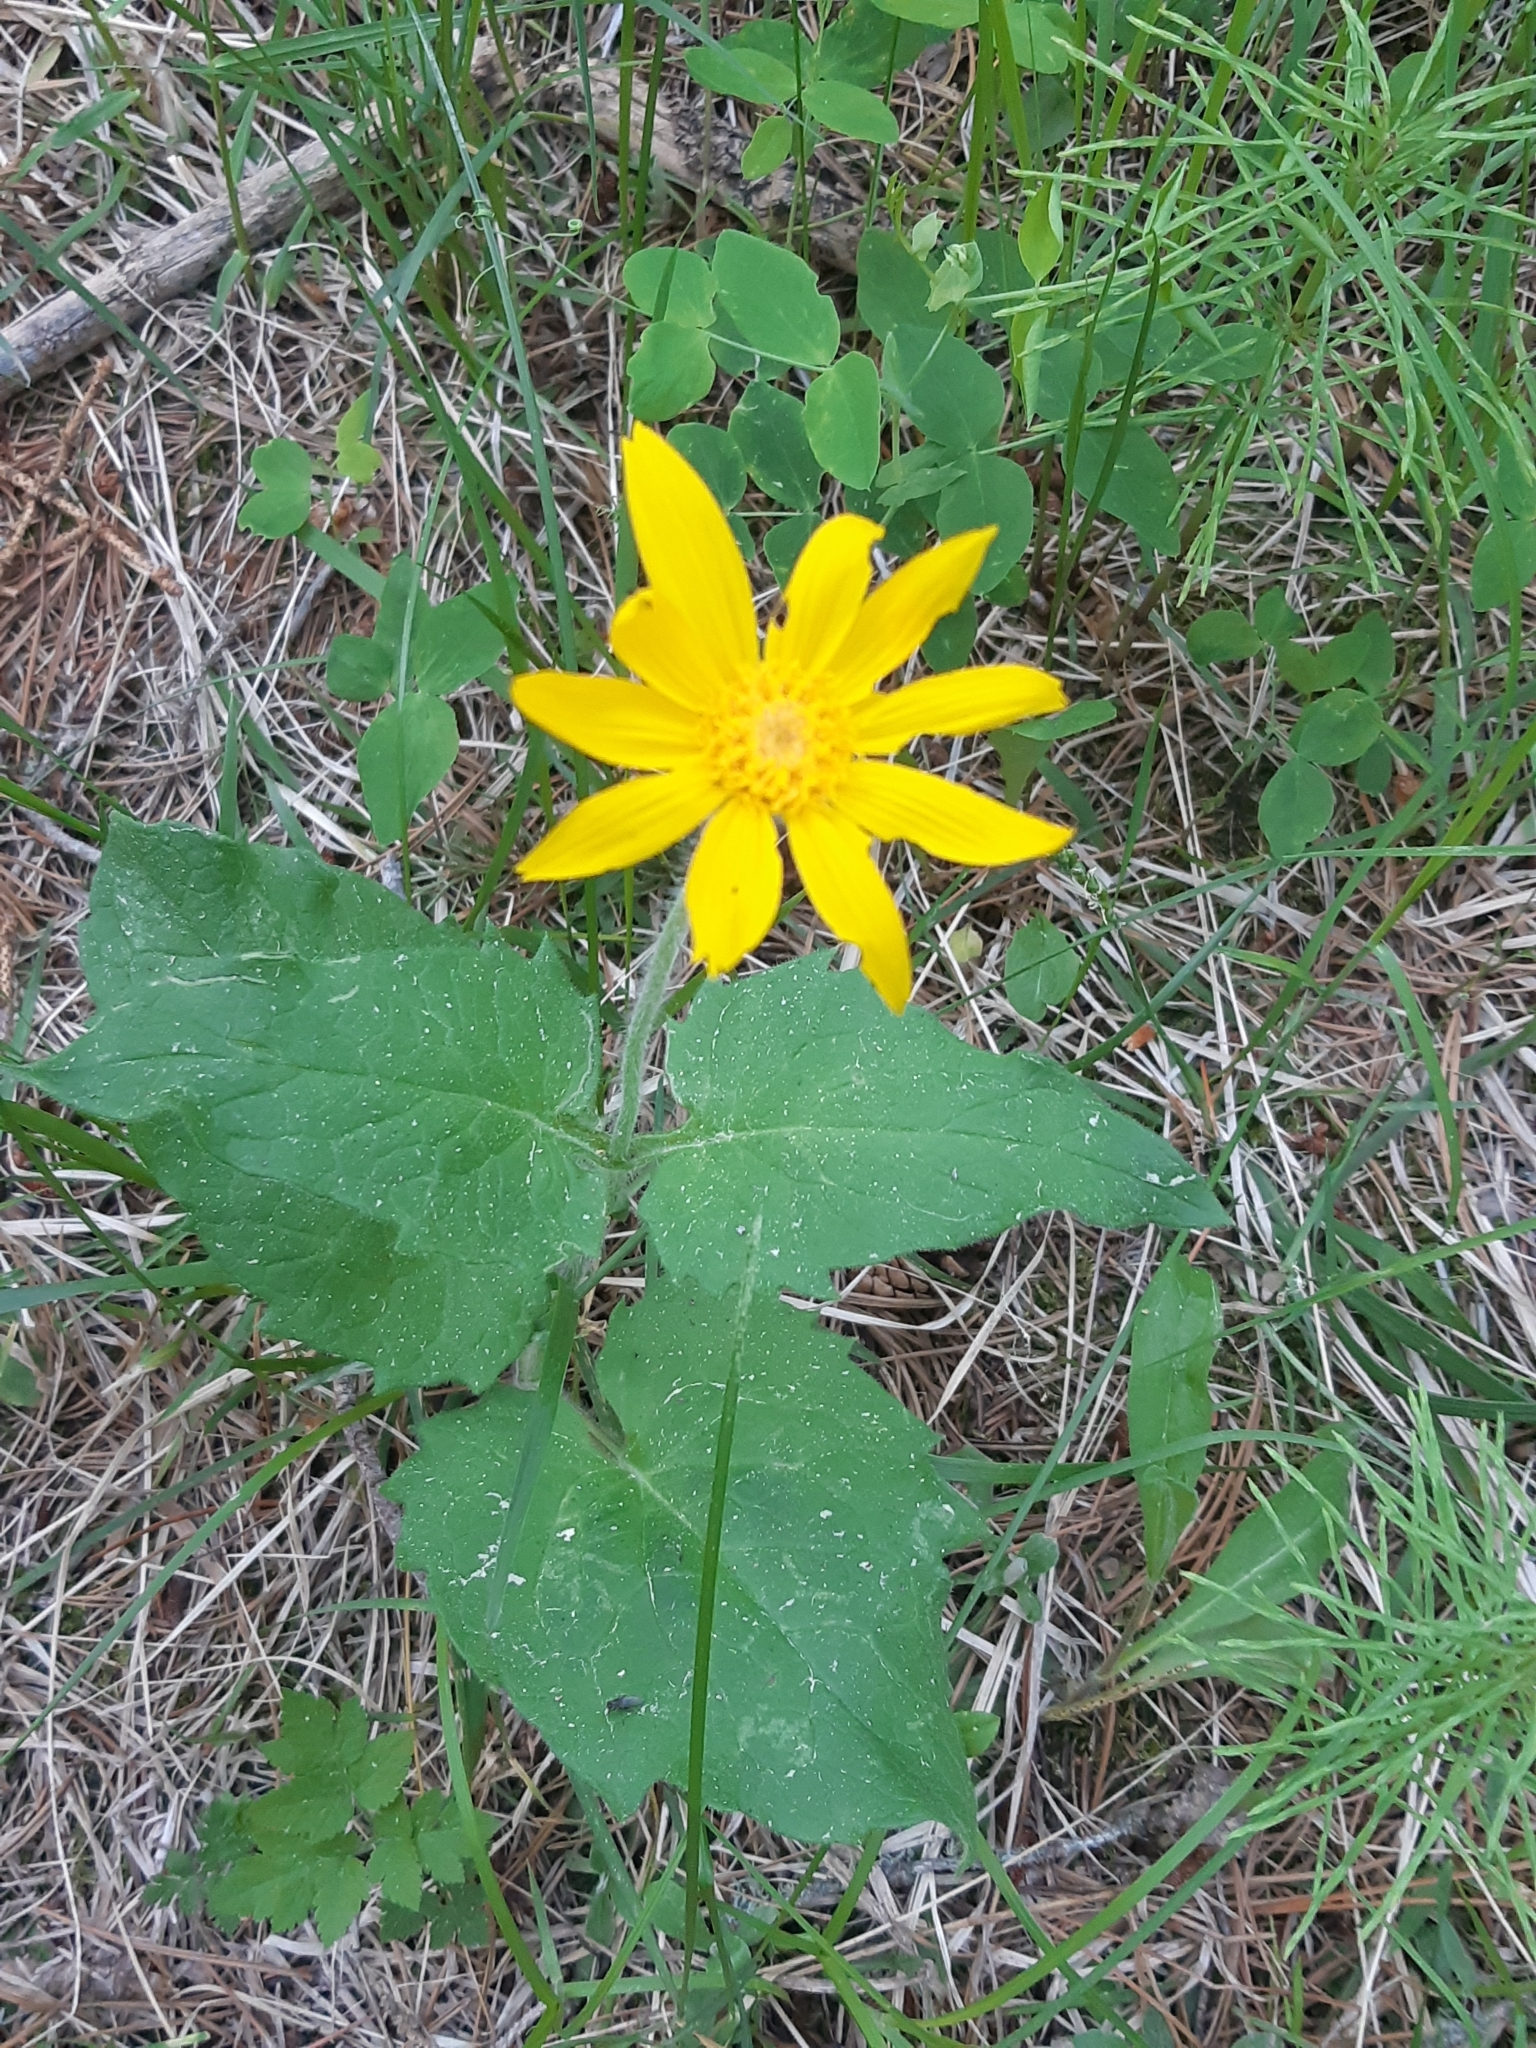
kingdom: Plantae
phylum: Tracheophyta
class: Magnoliopsida
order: Asterales
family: Asteraceae
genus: Arnica
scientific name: Arnica cordifolia
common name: Heart-leaf arnica
